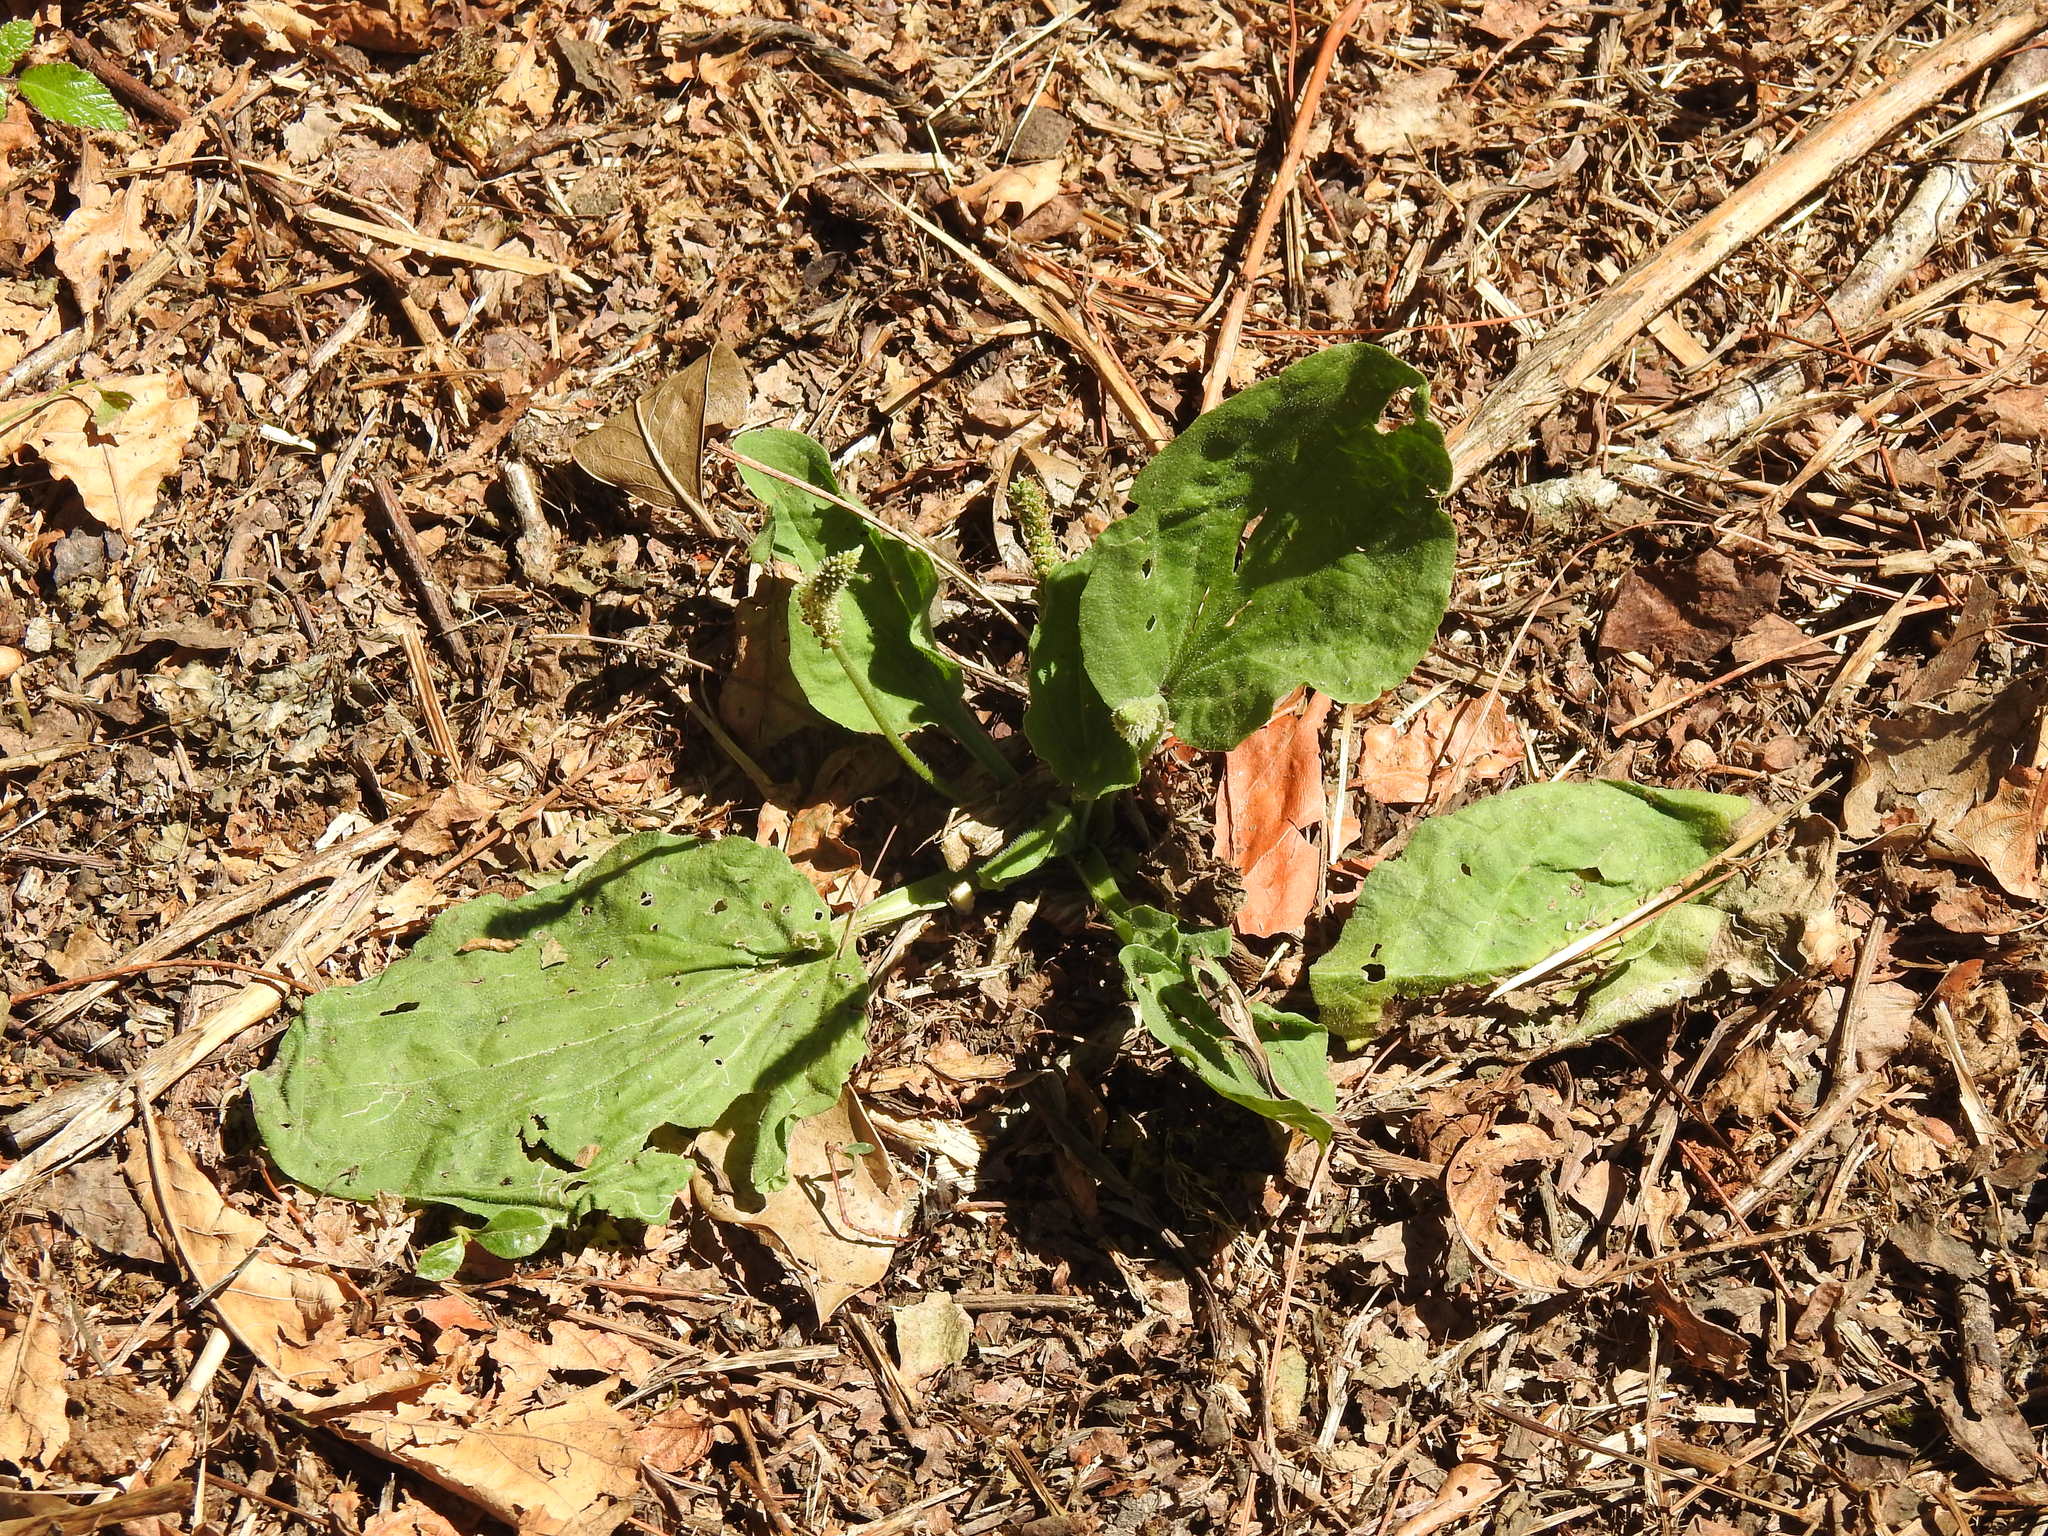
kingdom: Plantae
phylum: Tracheophyta
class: Magnoliopsida
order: Lamiales
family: Plantaginaceae
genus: Plantago
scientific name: Plantago major
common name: Common plantain
